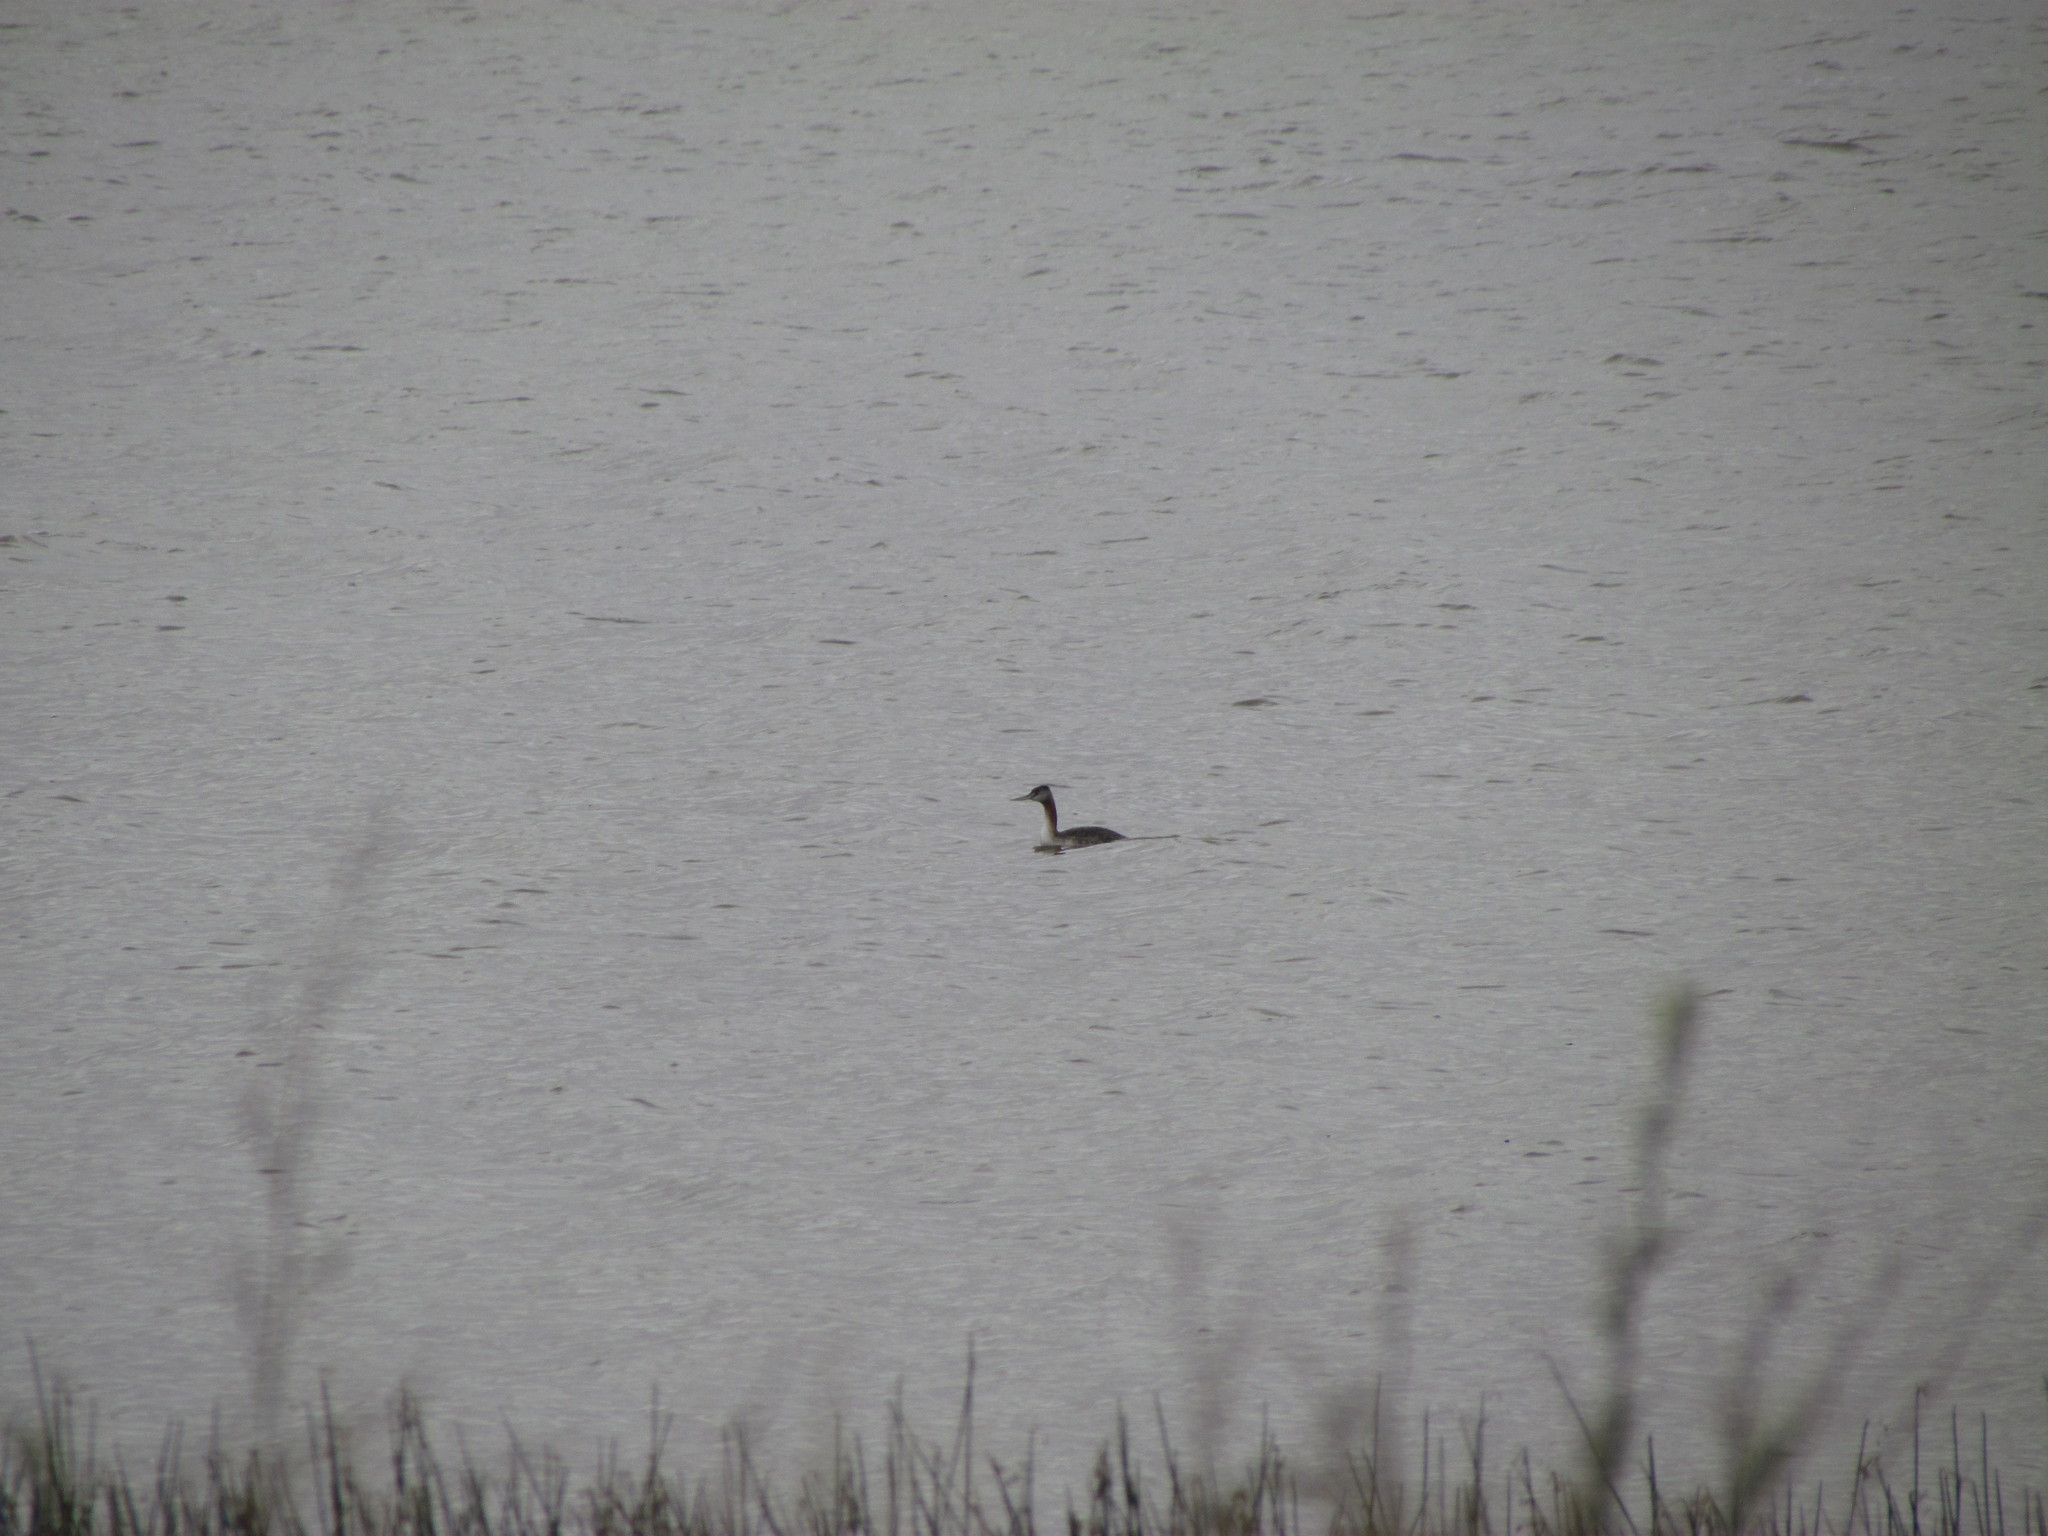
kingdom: Animalia
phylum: Chordata
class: Aves
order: Podicipediformes
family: Podicipedidae
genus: Podiceps
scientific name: Podiceps major
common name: Great grebe
